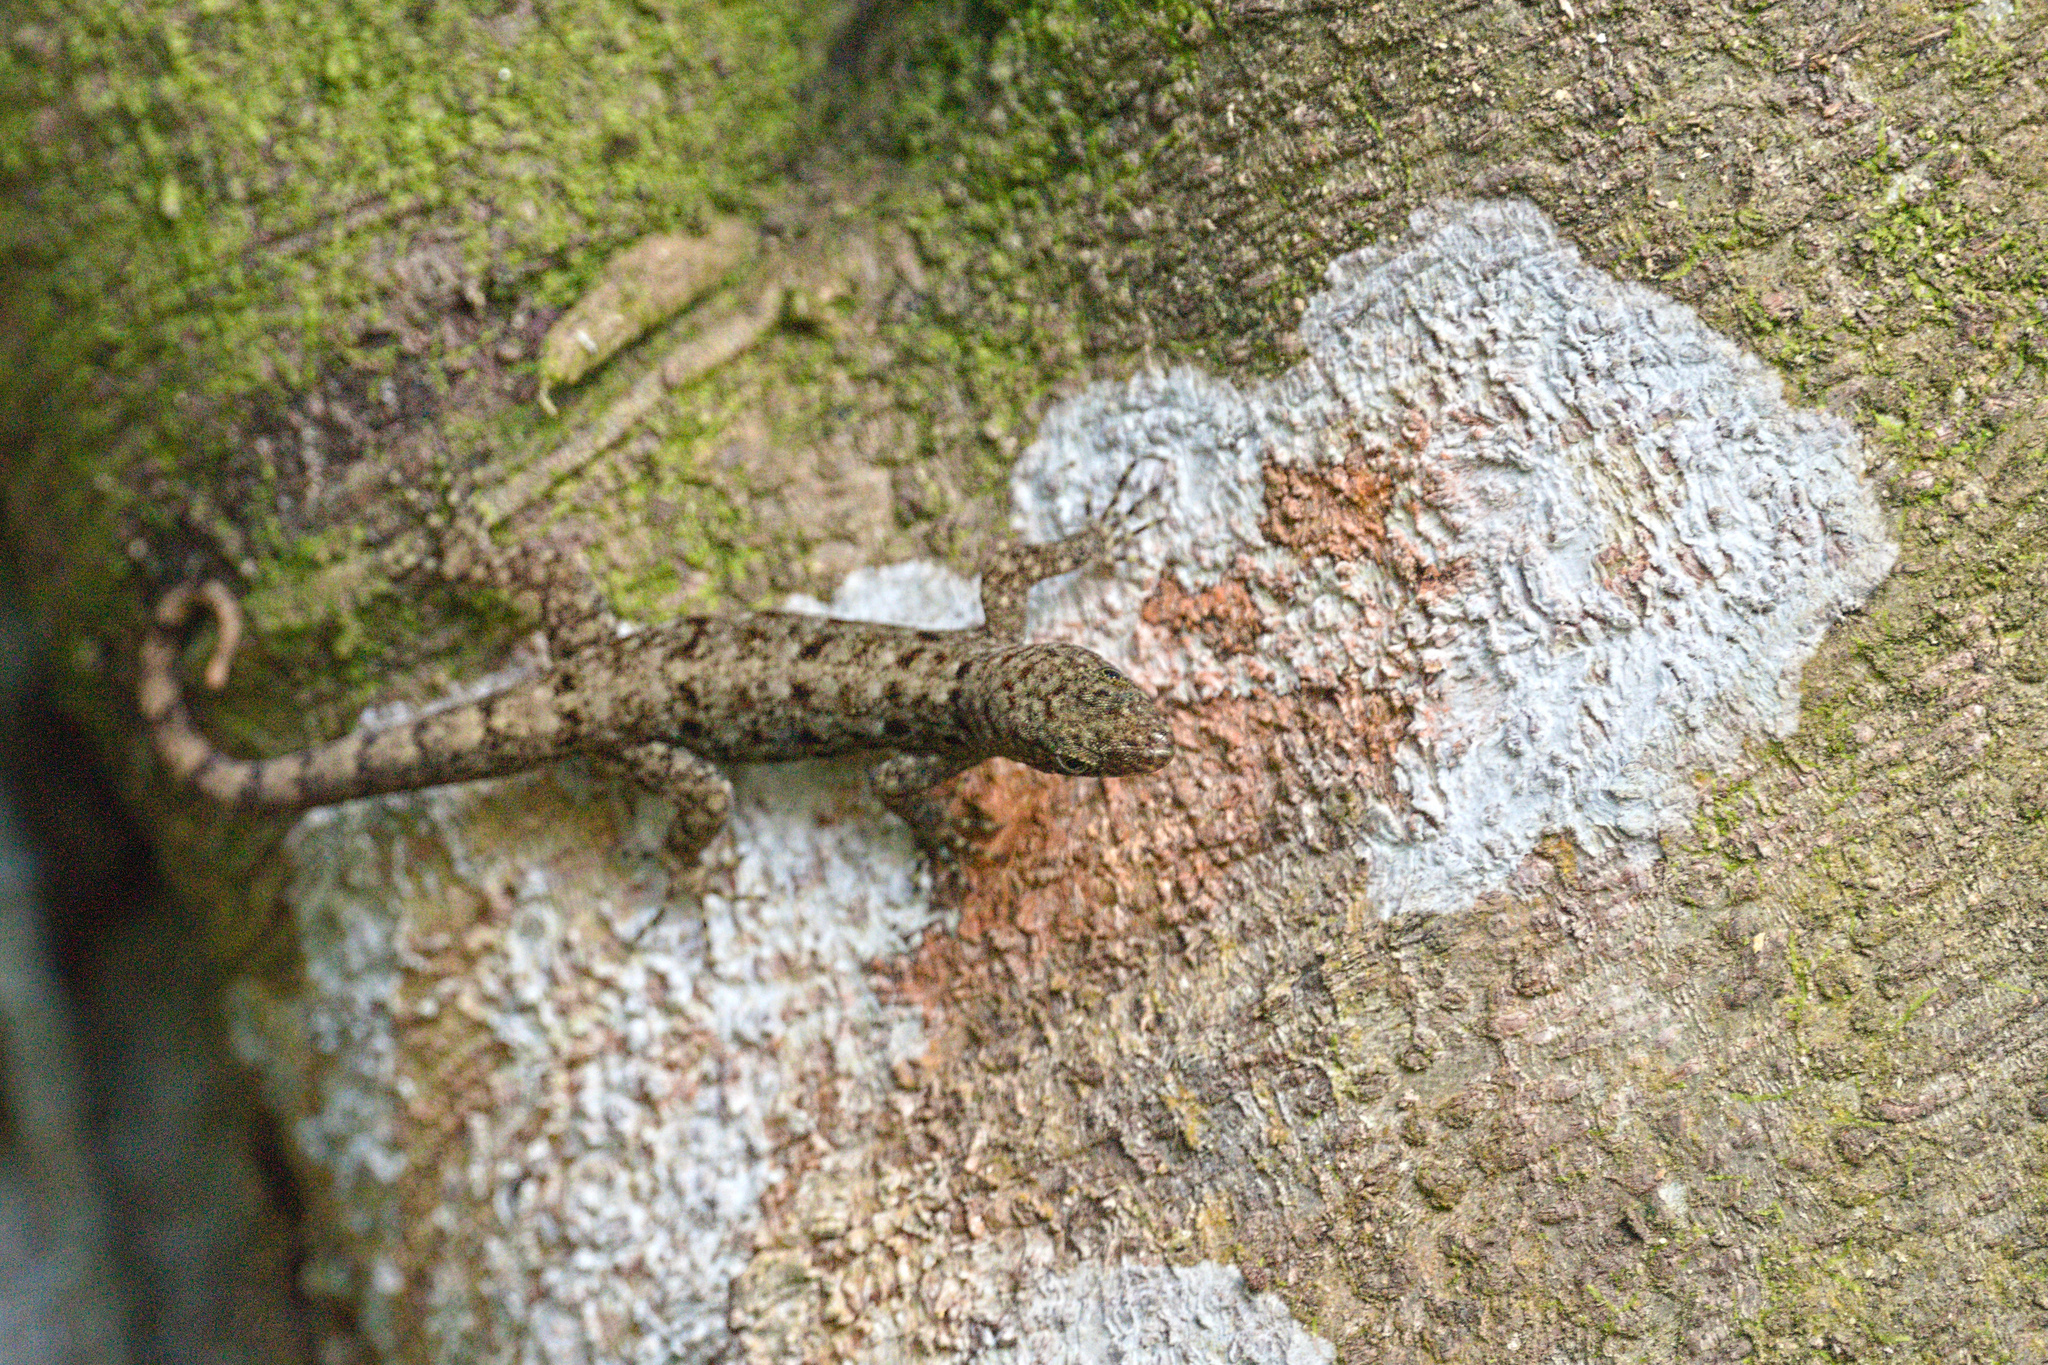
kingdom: Animalia
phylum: Chordata
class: Squamata
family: Sphaerodactylidae
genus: Gonatodes
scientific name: Gonatodes albogularis
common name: Yellow-headed gecko
